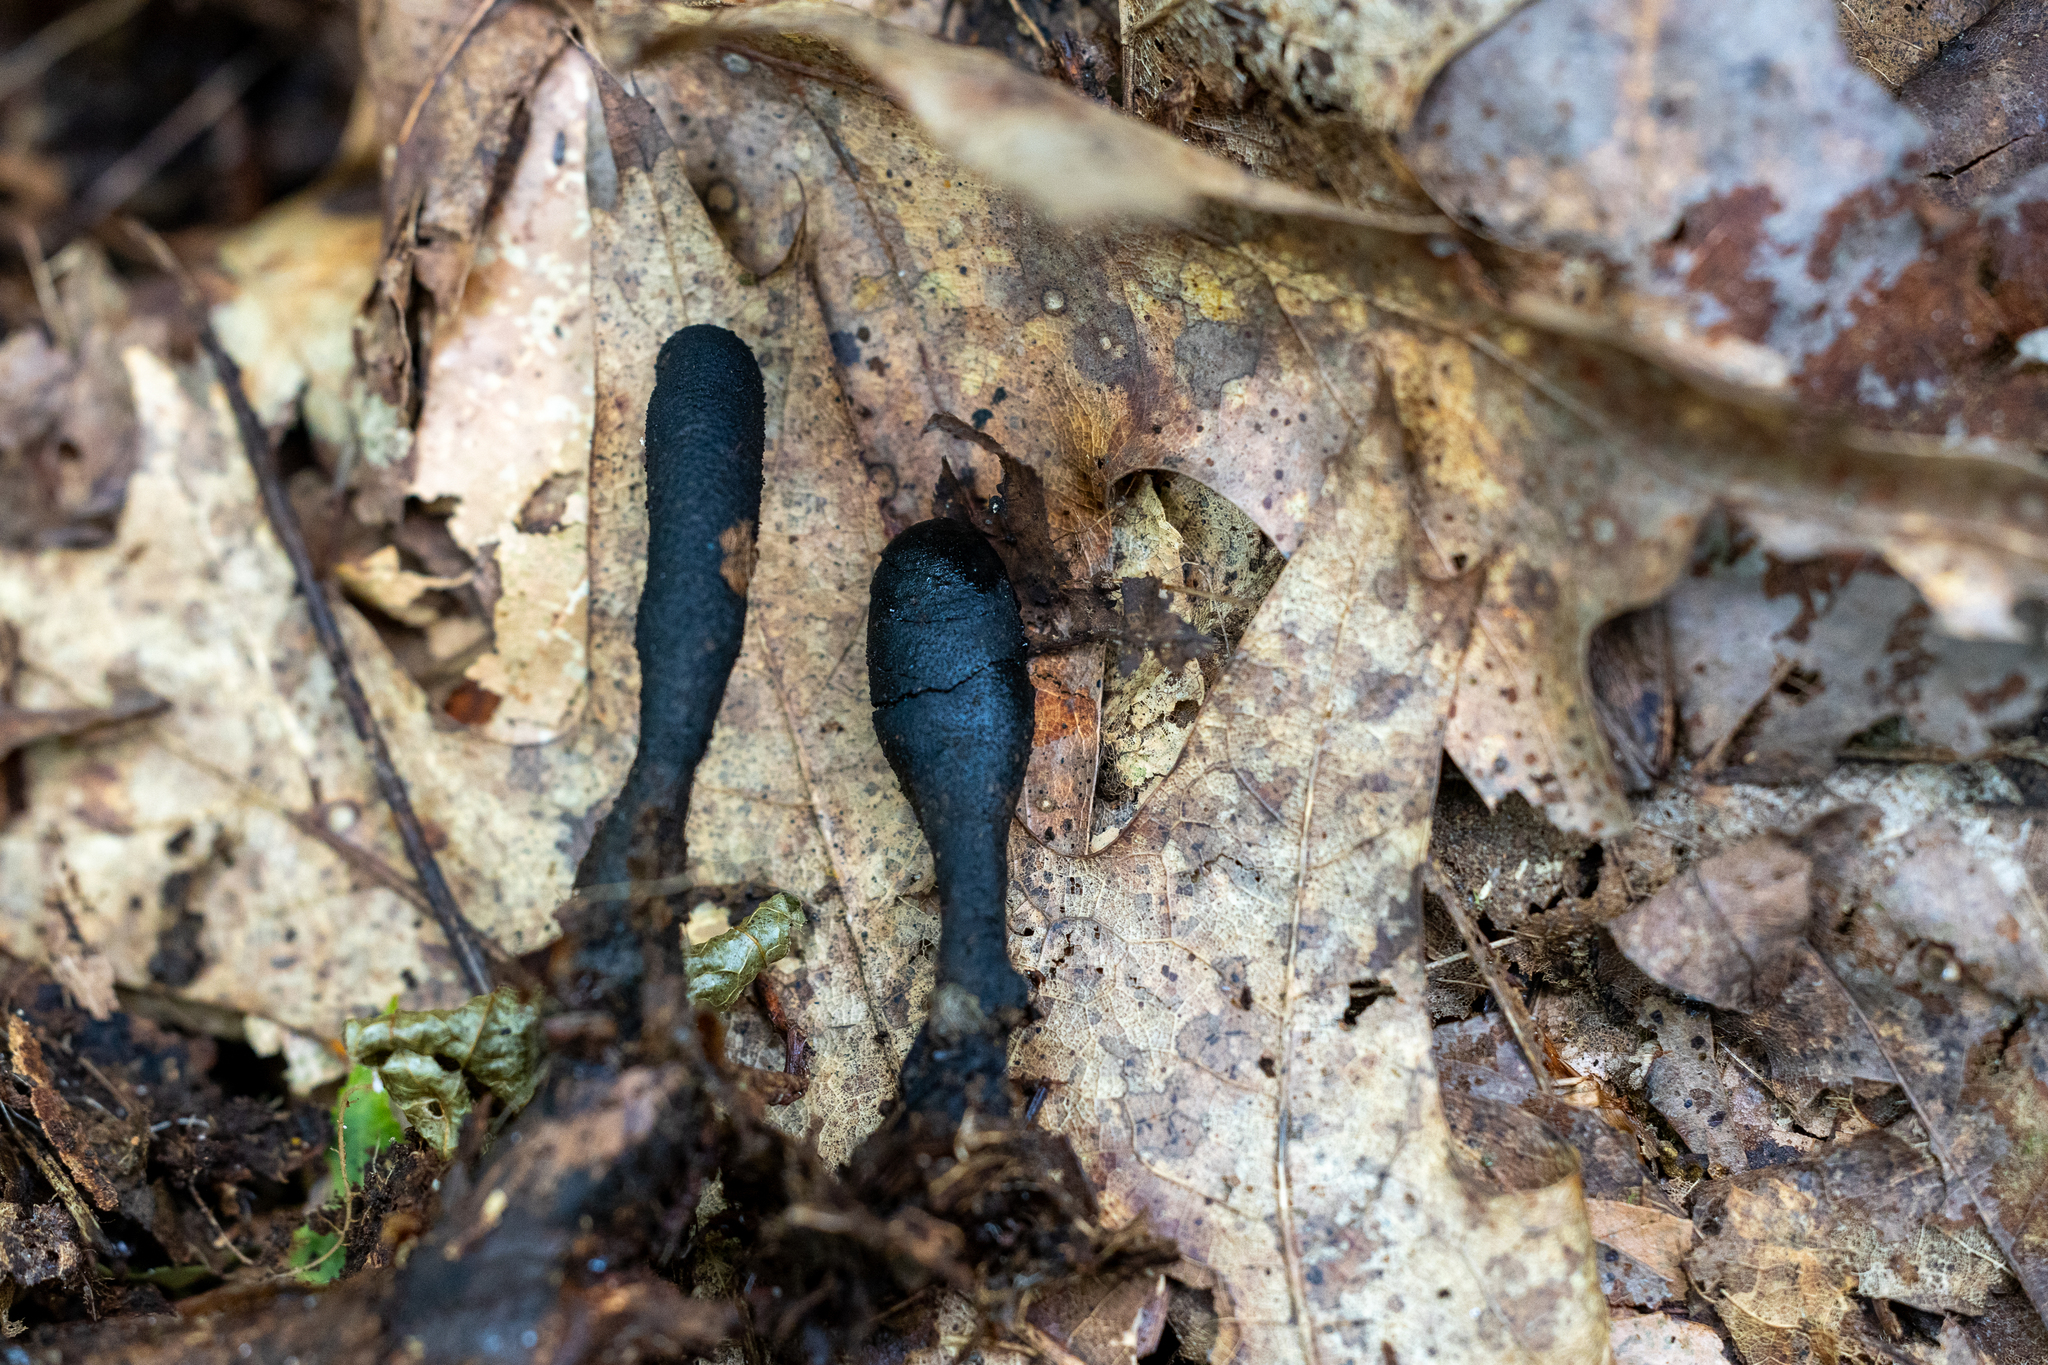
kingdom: Fungi
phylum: Ascomycota
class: Sordariomycetes
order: Xylariales
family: Xylariaceae
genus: Xylaria
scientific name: Xylaria longipes
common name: Dead moll's fingers
